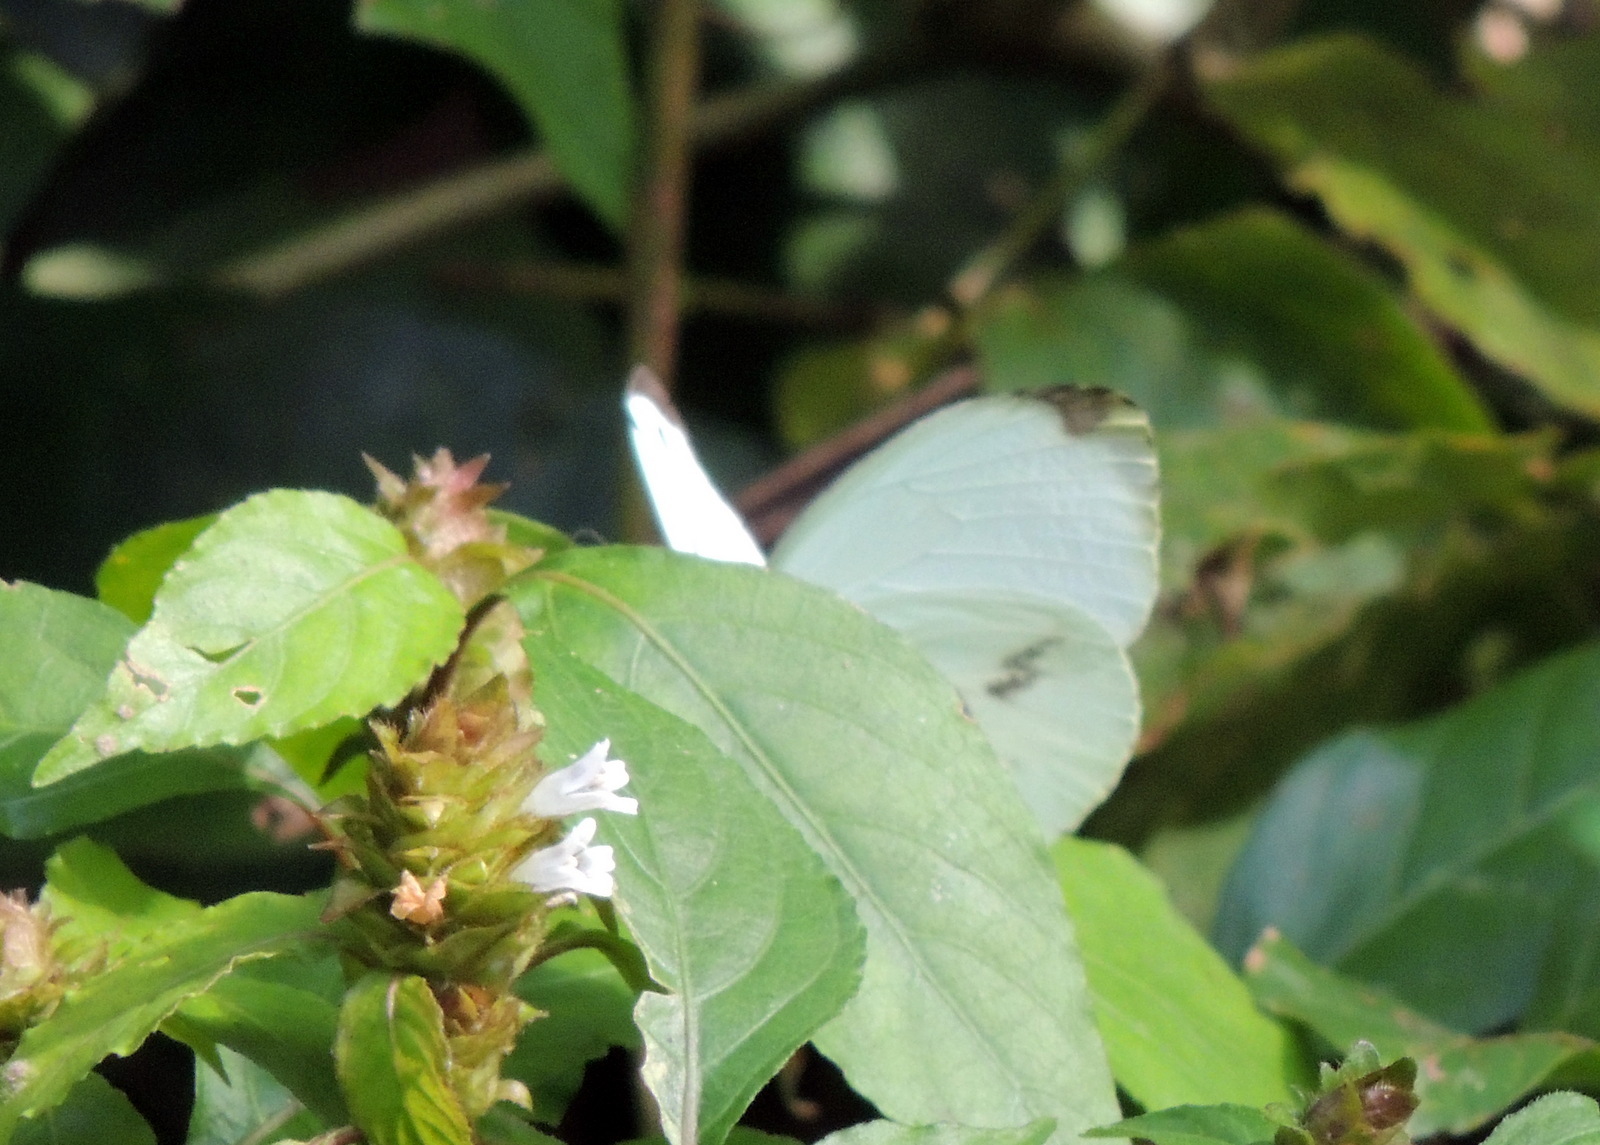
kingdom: Animalia
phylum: Arthropoda
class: Insecta
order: Lepidoptera
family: Pieridae
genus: Nepheronia
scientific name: Nepheronia pharis
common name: Round-winged vagrant
